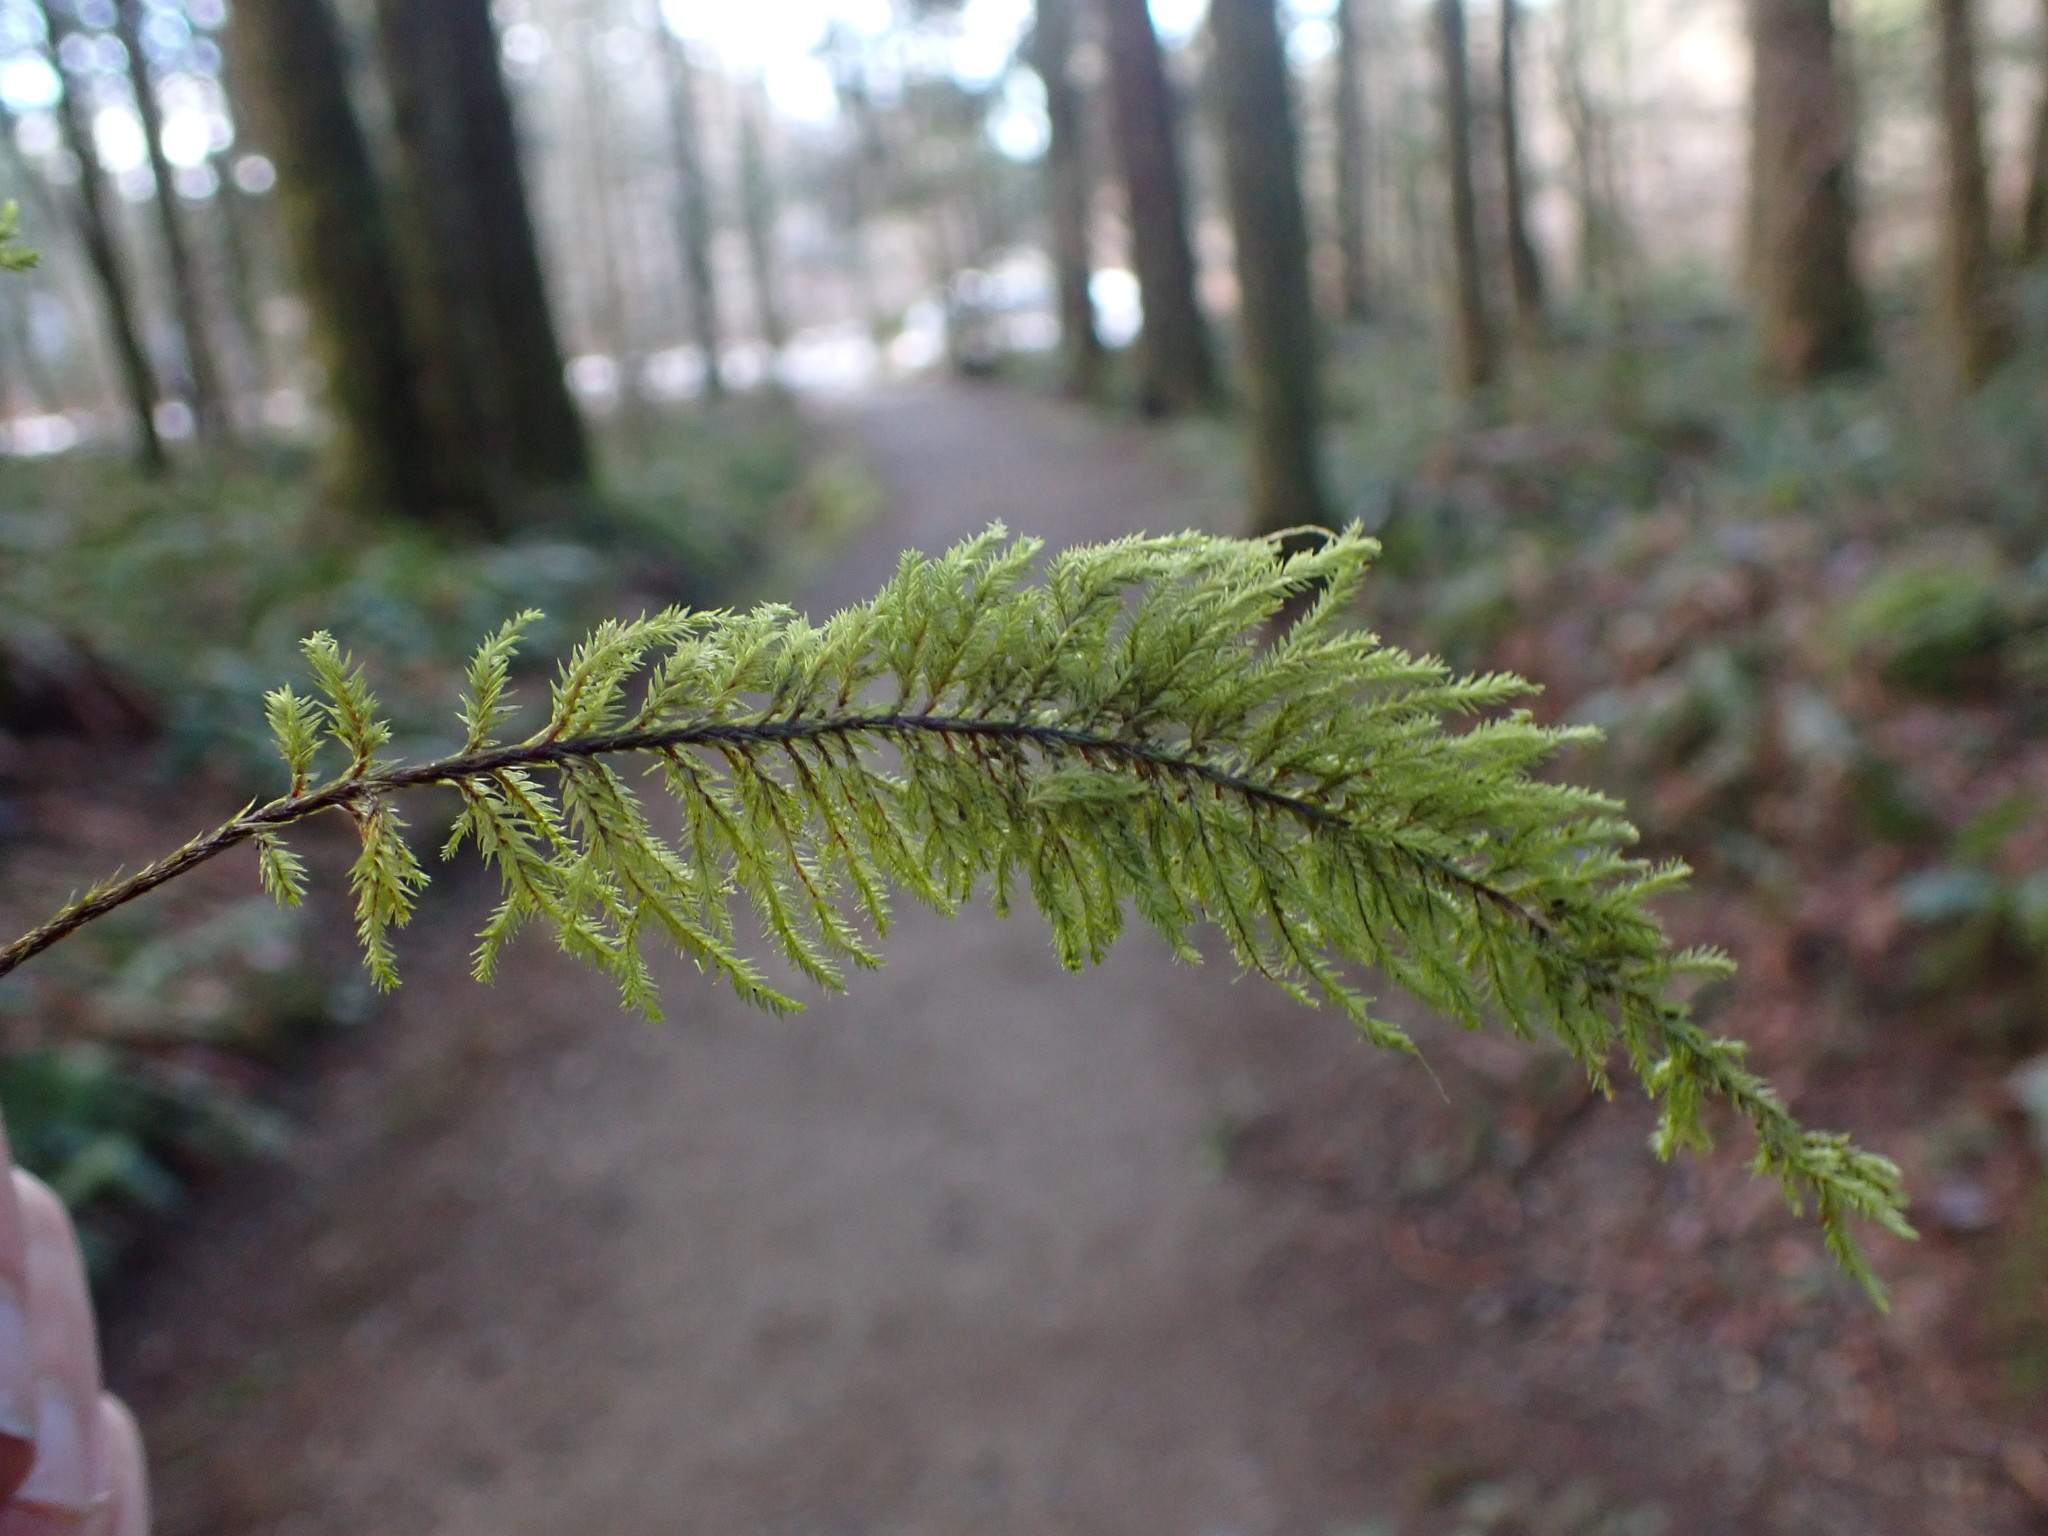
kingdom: Plantae
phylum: Bryophyta
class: Bryopsida
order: Hypnales
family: Cryphaeaceae
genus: Dendroalsia
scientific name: Dendroalsia abietina
